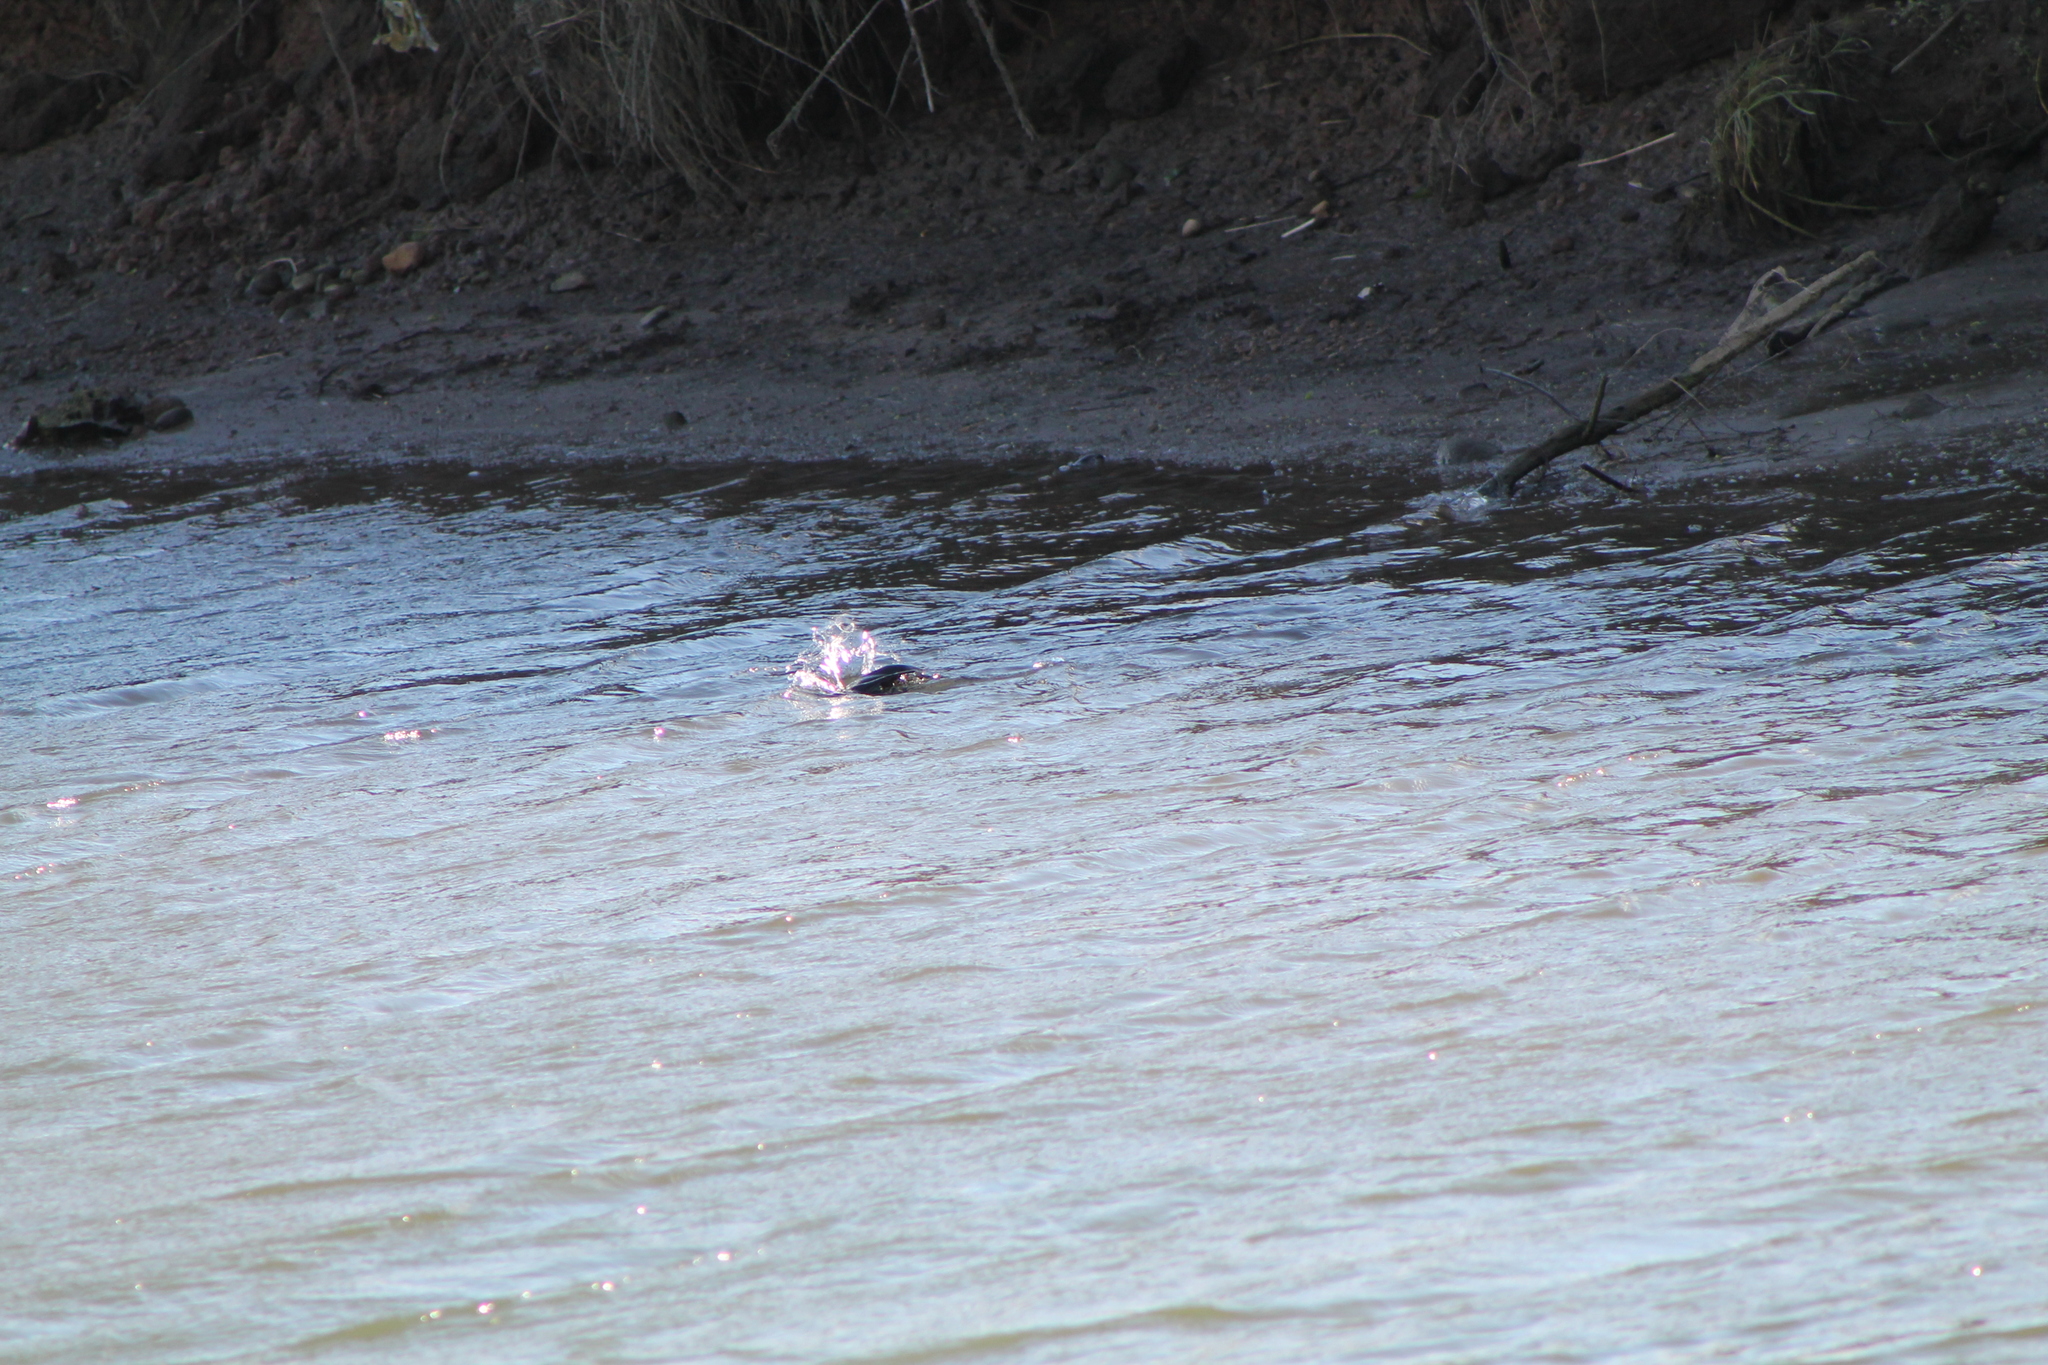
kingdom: Animalia
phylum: Chordata
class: Aves
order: Suliformes
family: Phalacrocoracidae
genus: Microcarbo
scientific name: Microcarbo melanoleucos
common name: Little pied cormorant
